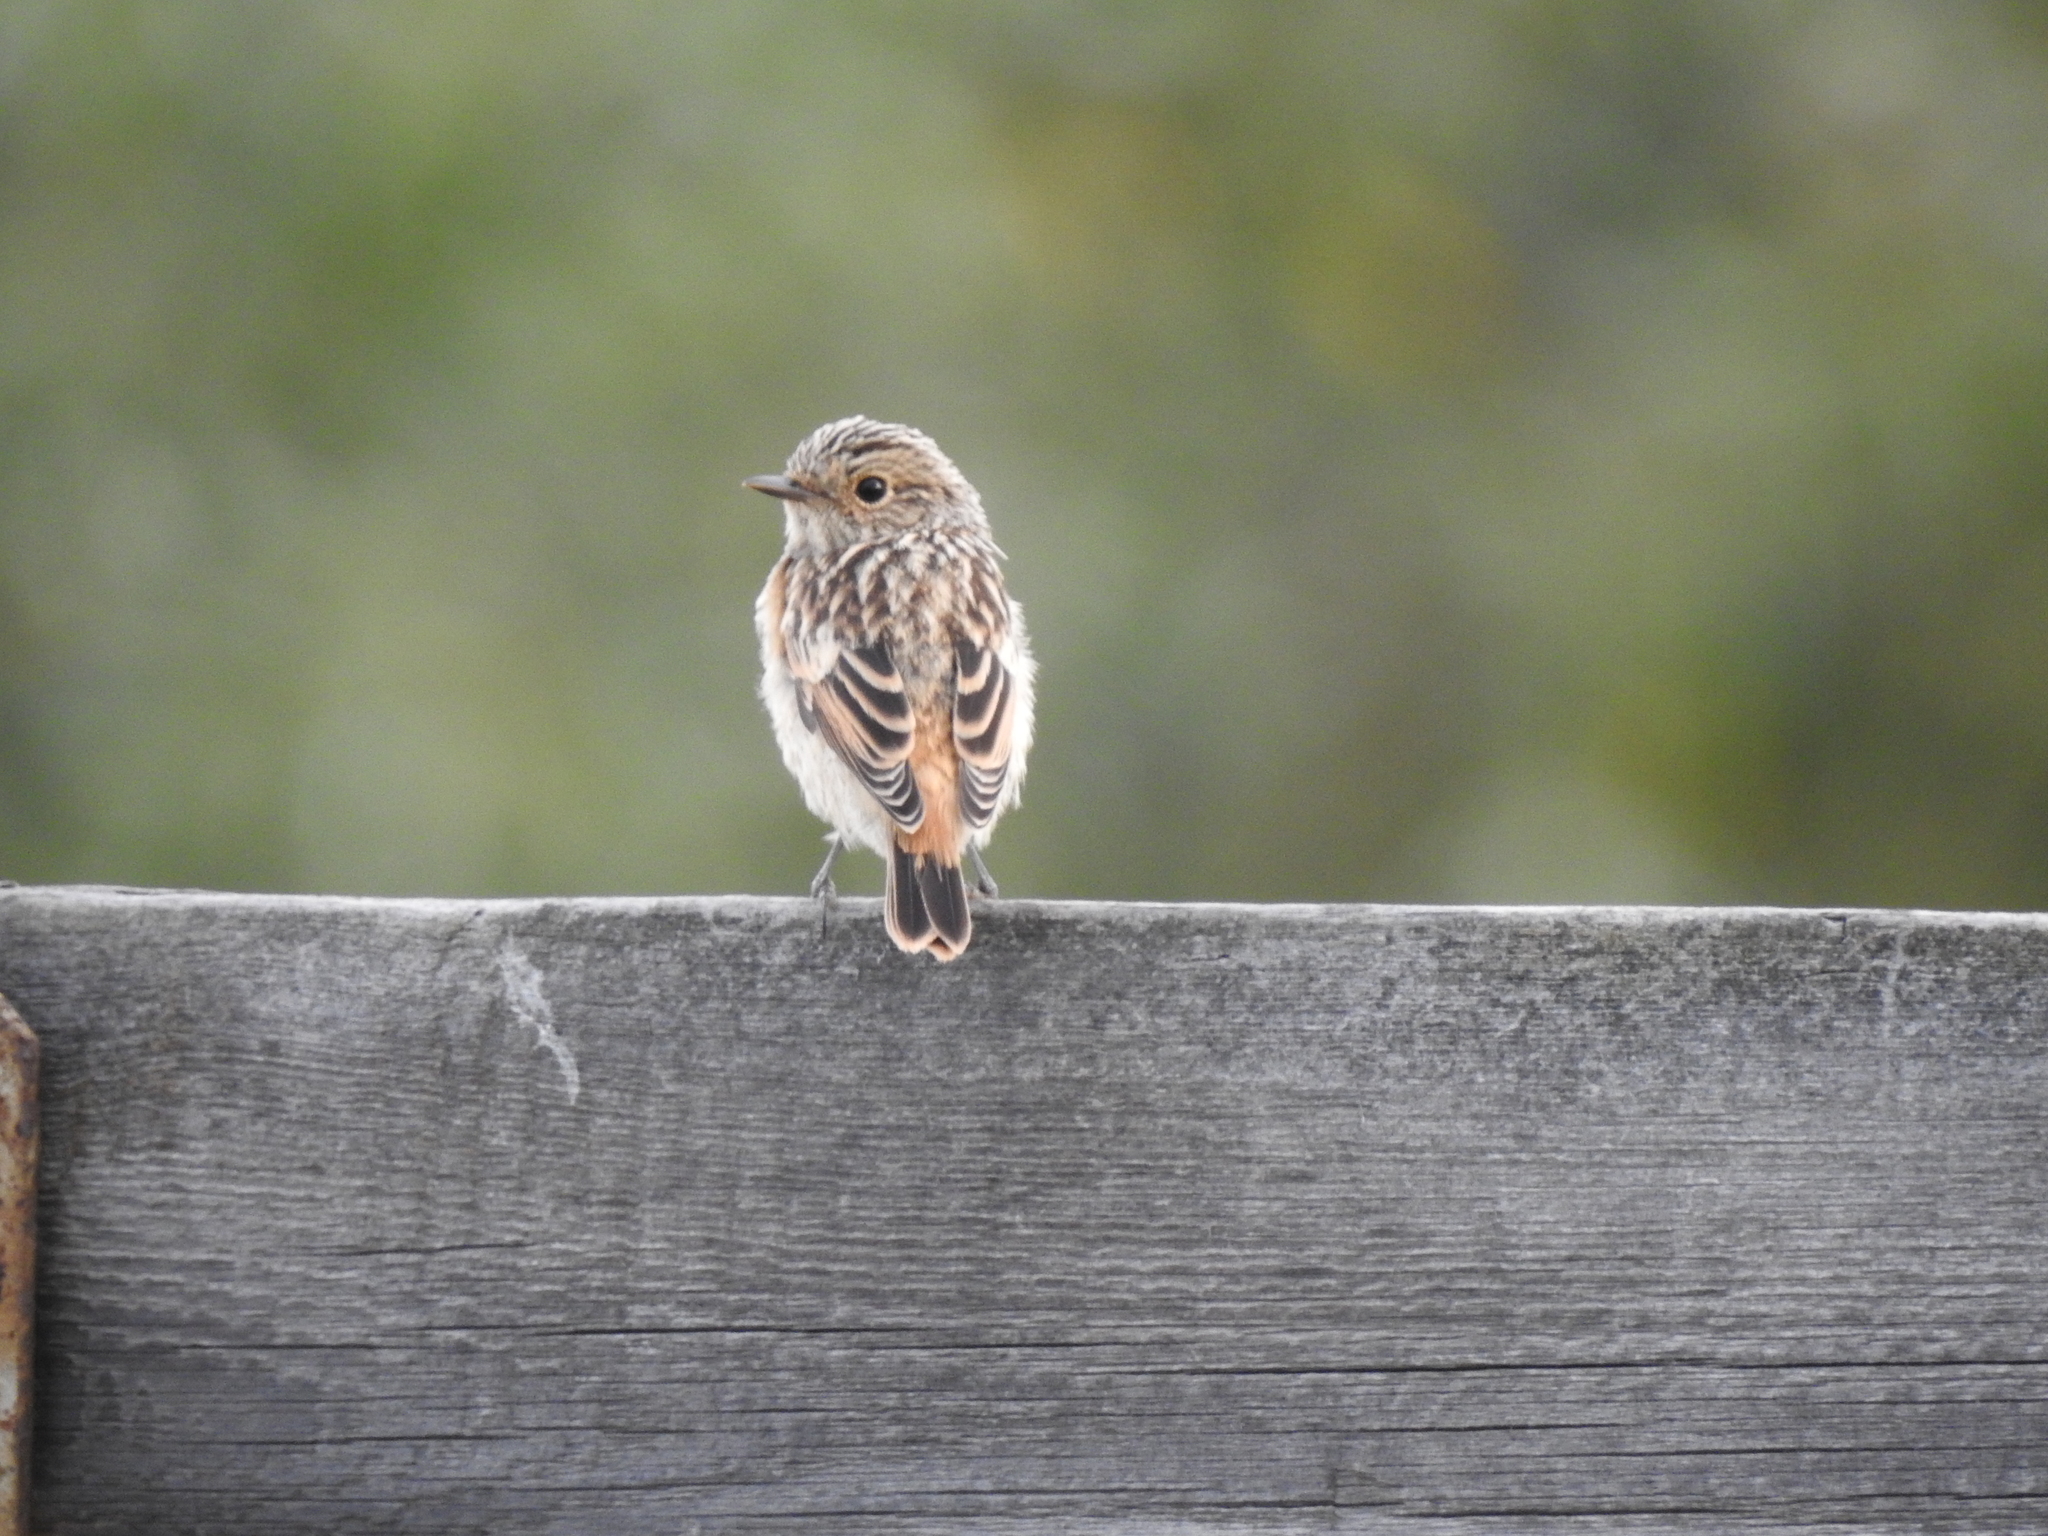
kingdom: Animalia
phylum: Chordata
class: Aves
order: Passeriformes
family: Muscicapidae
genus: Saxicola
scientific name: Saxicola maurus
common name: Siberian stonechat
